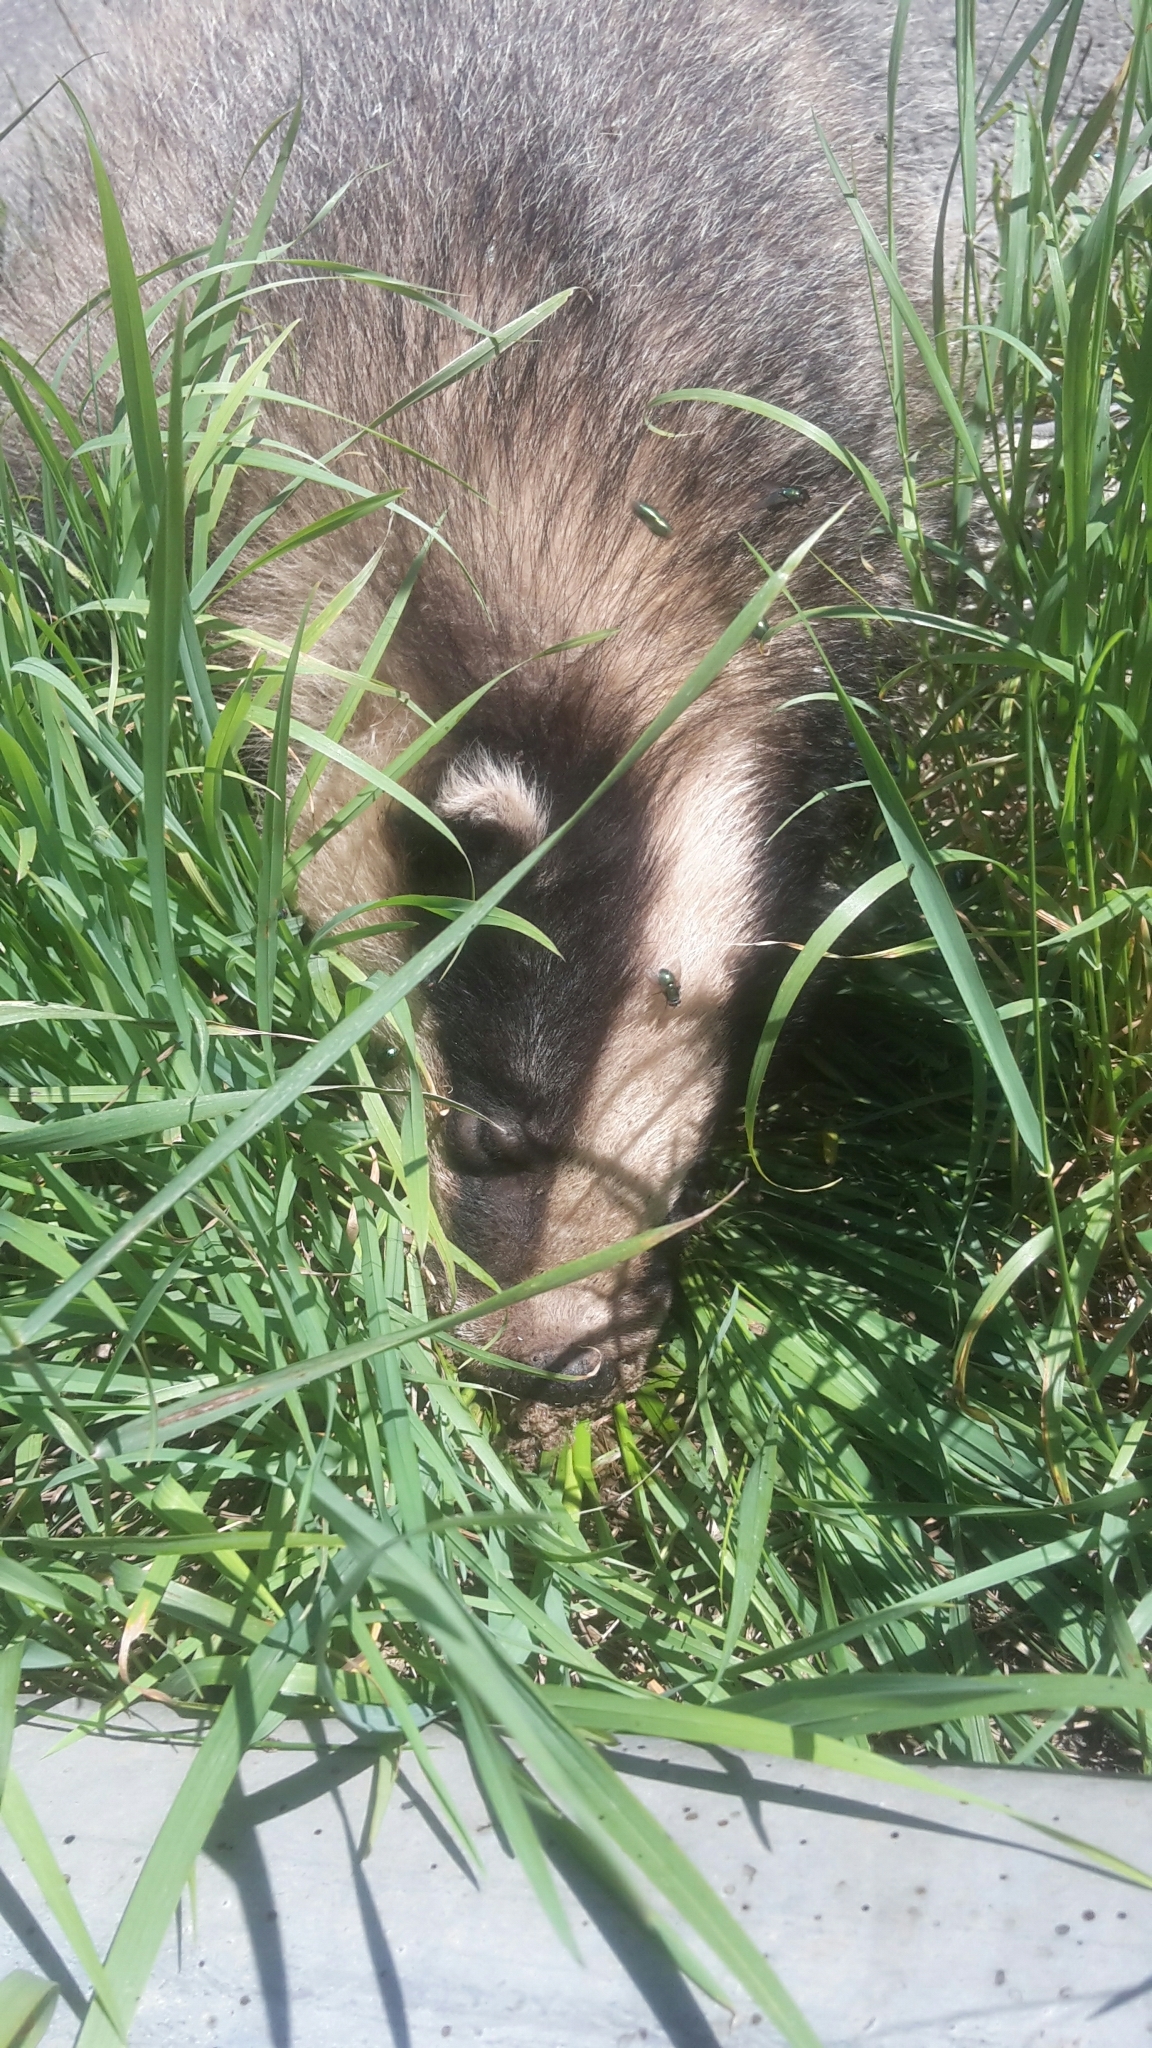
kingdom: Animalia
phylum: Chordata
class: Mammalia
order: Carnivora
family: Mustelidae
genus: Meles
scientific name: Meles meles
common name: Eurasian badger
